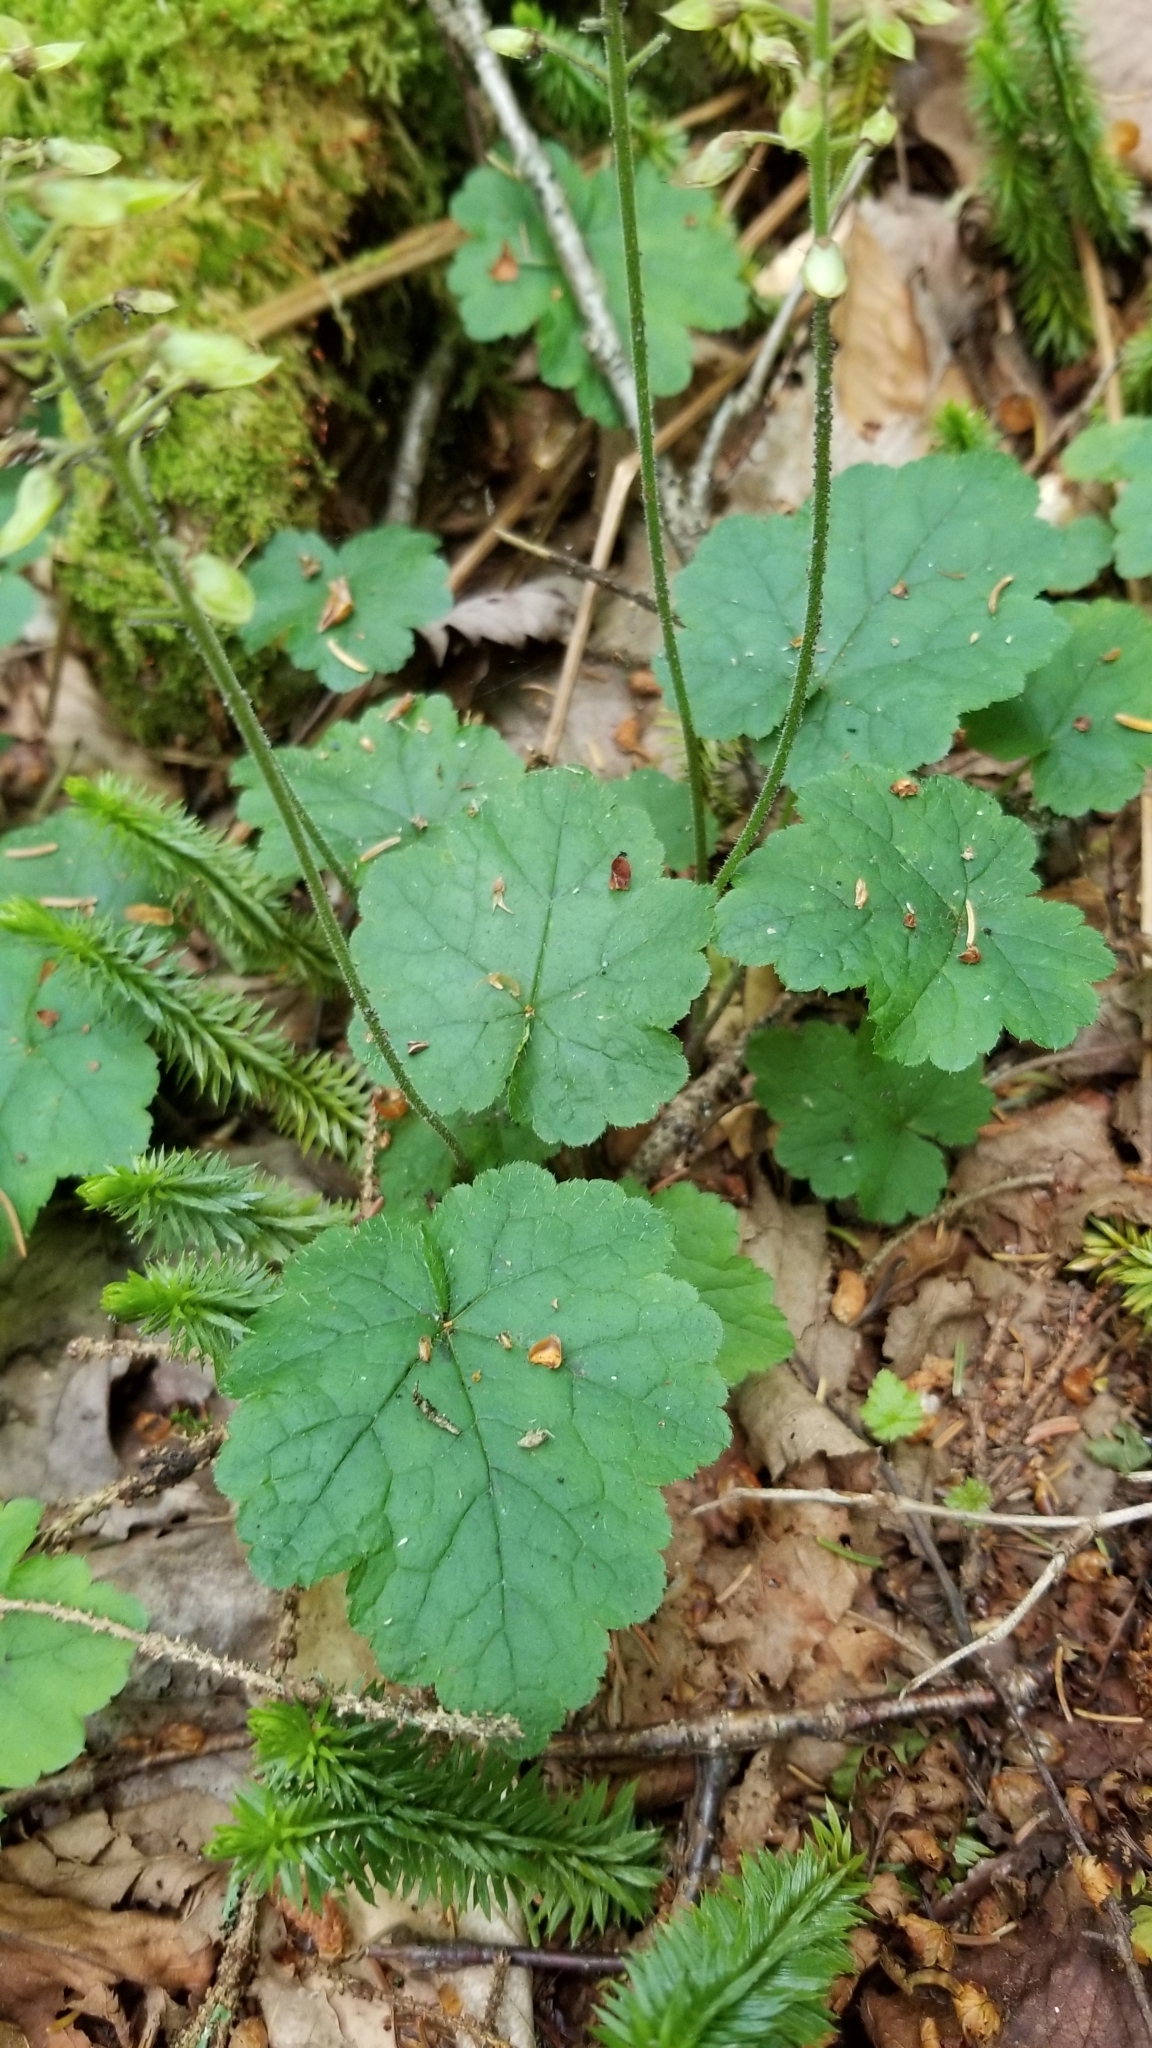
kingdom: Plantae
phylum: Tracheophyta
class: Magnoliopsida
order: Saxifragales
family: Saxifragaceae
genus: Tiarella
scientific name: Tiarella stolonifera
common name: Stoloniferous foamflower
